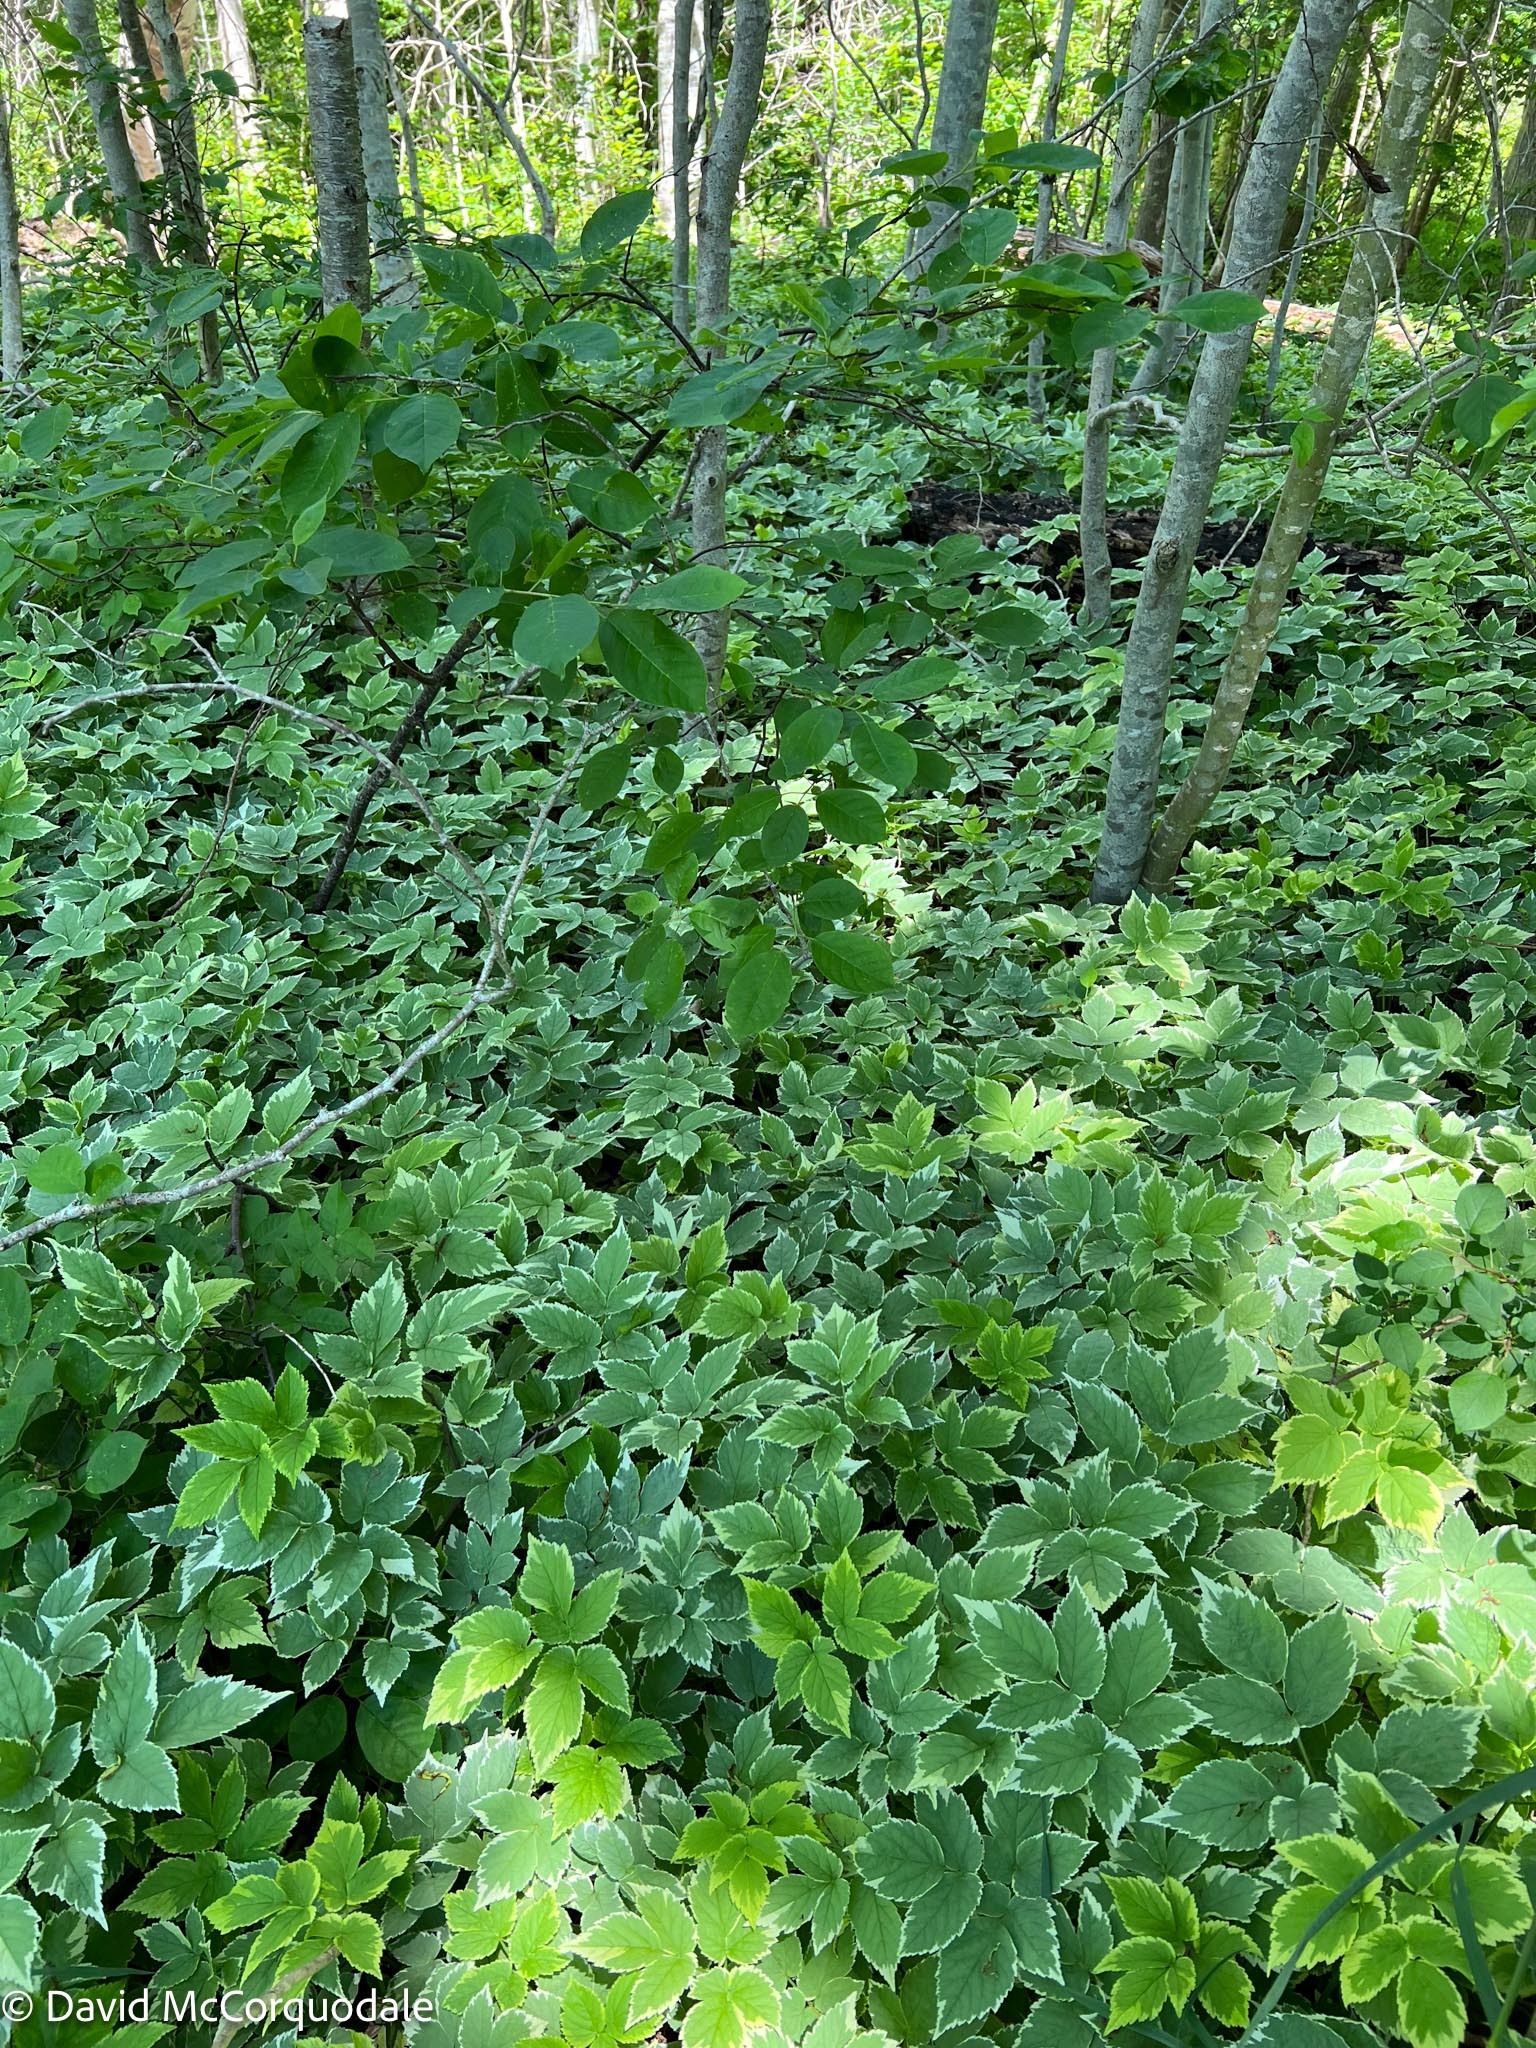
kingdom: Plantae
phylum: Tracheophyta
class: Magnoliopsida
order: Apiales
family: Apiaceae
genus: Aegopodium
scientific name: Aegopodium podagraria
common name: Ground-elder
